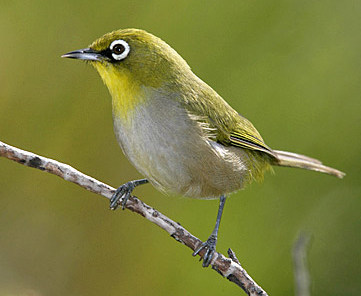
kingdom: Animalia
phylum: Chordata
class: Aves
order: Passeriformes
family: Zosteropidae
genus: Zosterops
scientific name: Zosterops virens
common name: Cape white-eye
